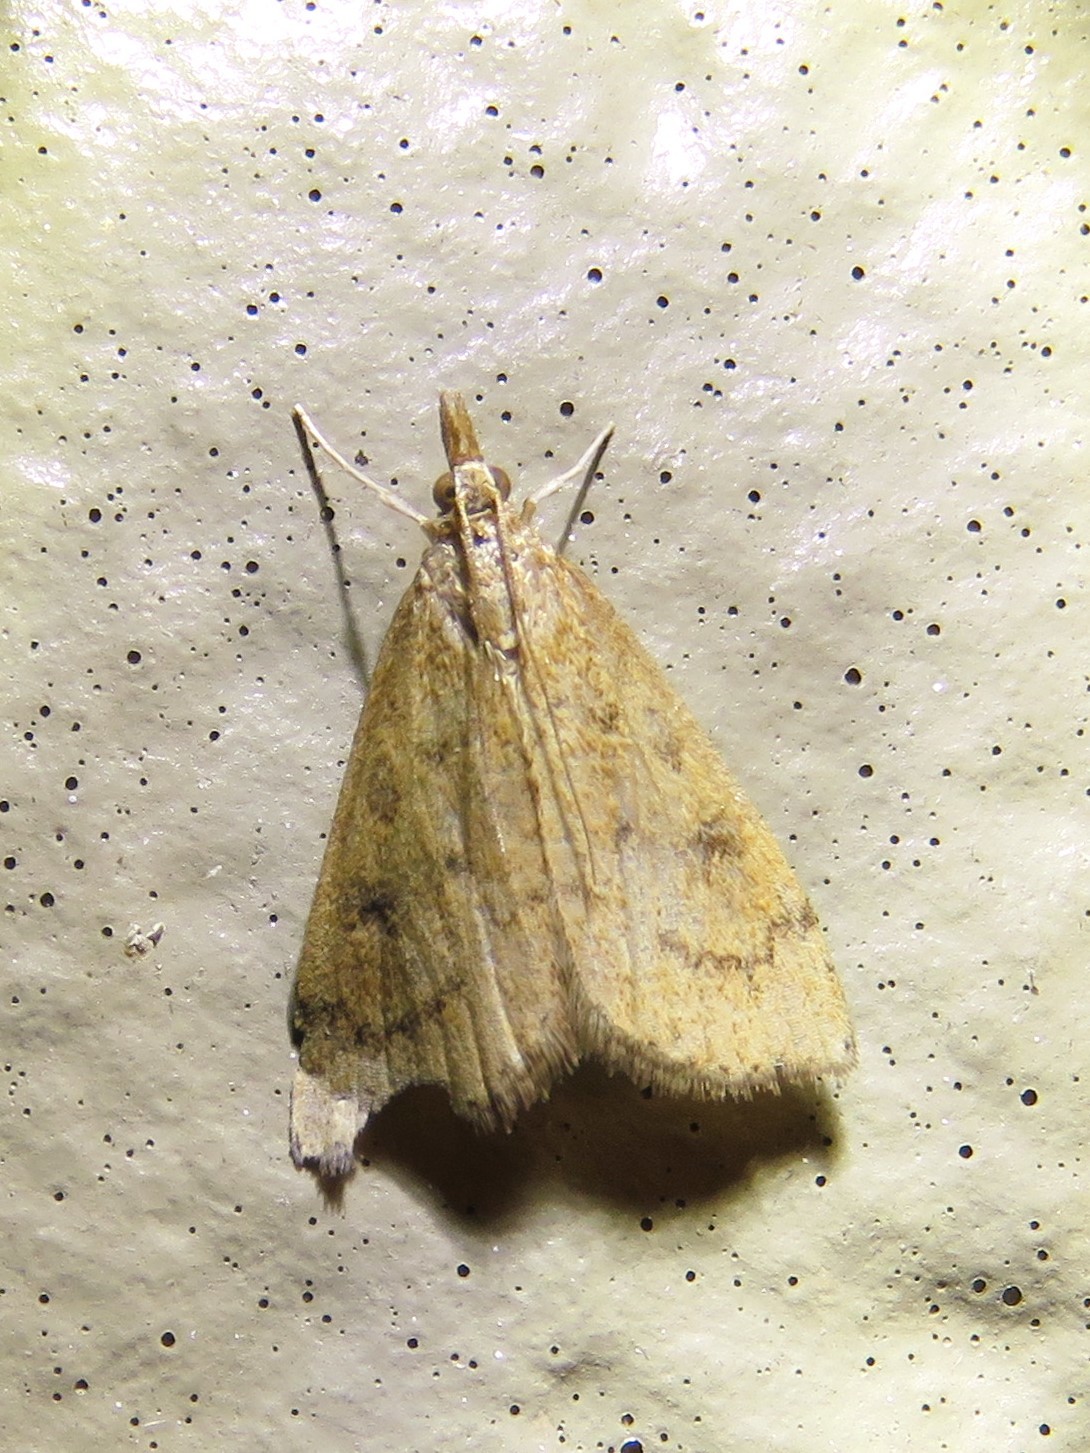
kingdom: Animalia
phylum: Arthropoda
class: Insecta
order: Lepidoptera
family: Crambidae
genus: Udea
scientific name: Udea rubigalis
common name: Celery leaftier moth
